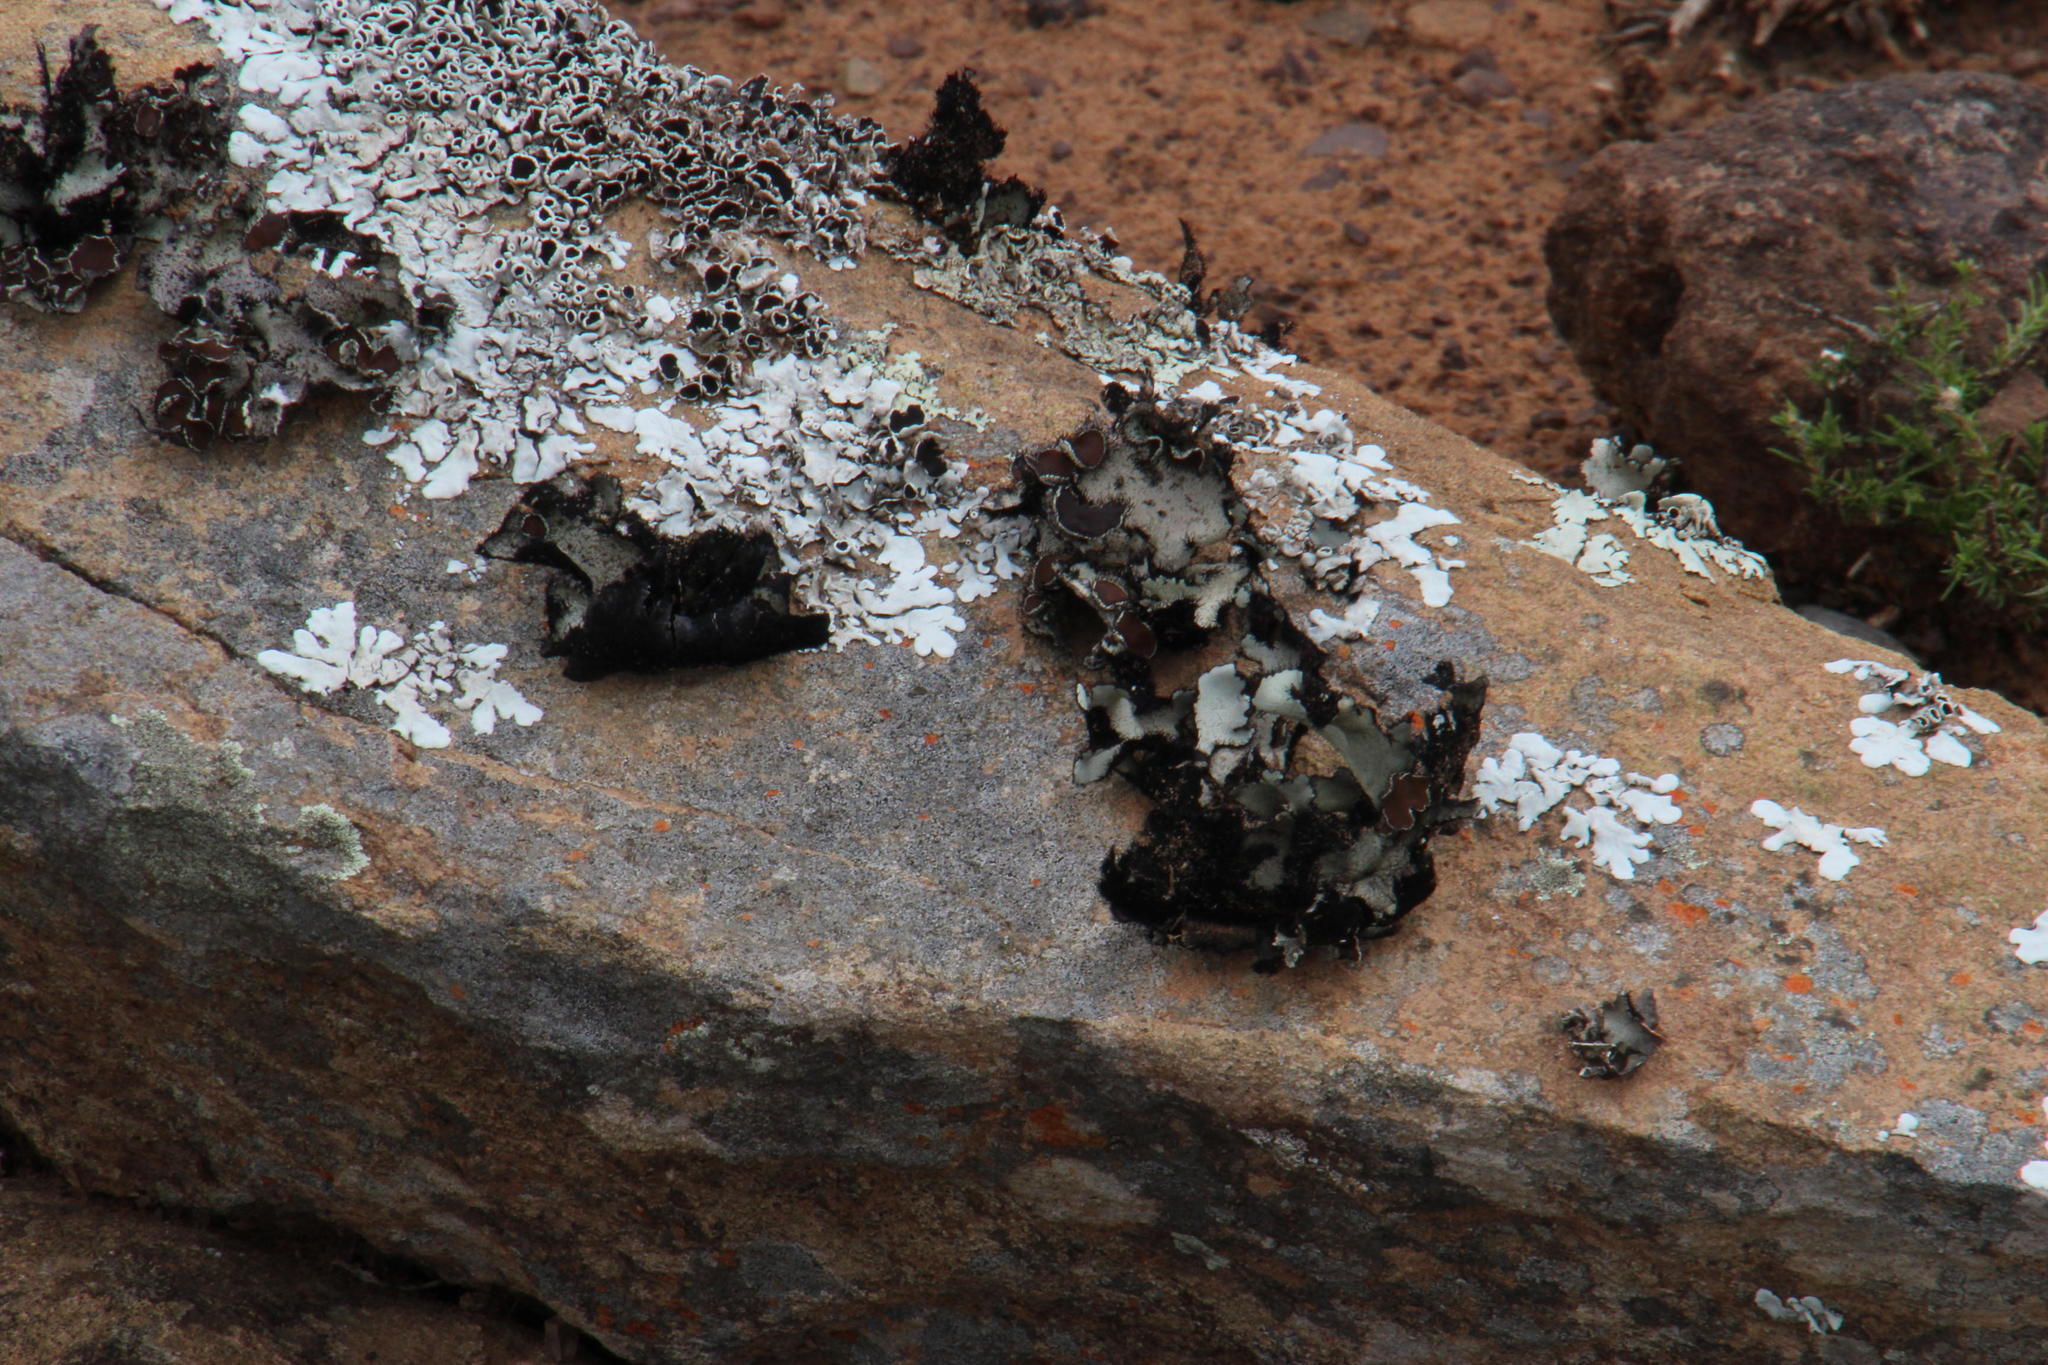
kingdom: Fungi
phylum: Ascomycota
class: Lecanoromycetes
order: Lecanorales
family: Parmeliaceae
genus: Xanthoparmelia
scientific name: Xanthoparmelia hottentotta
